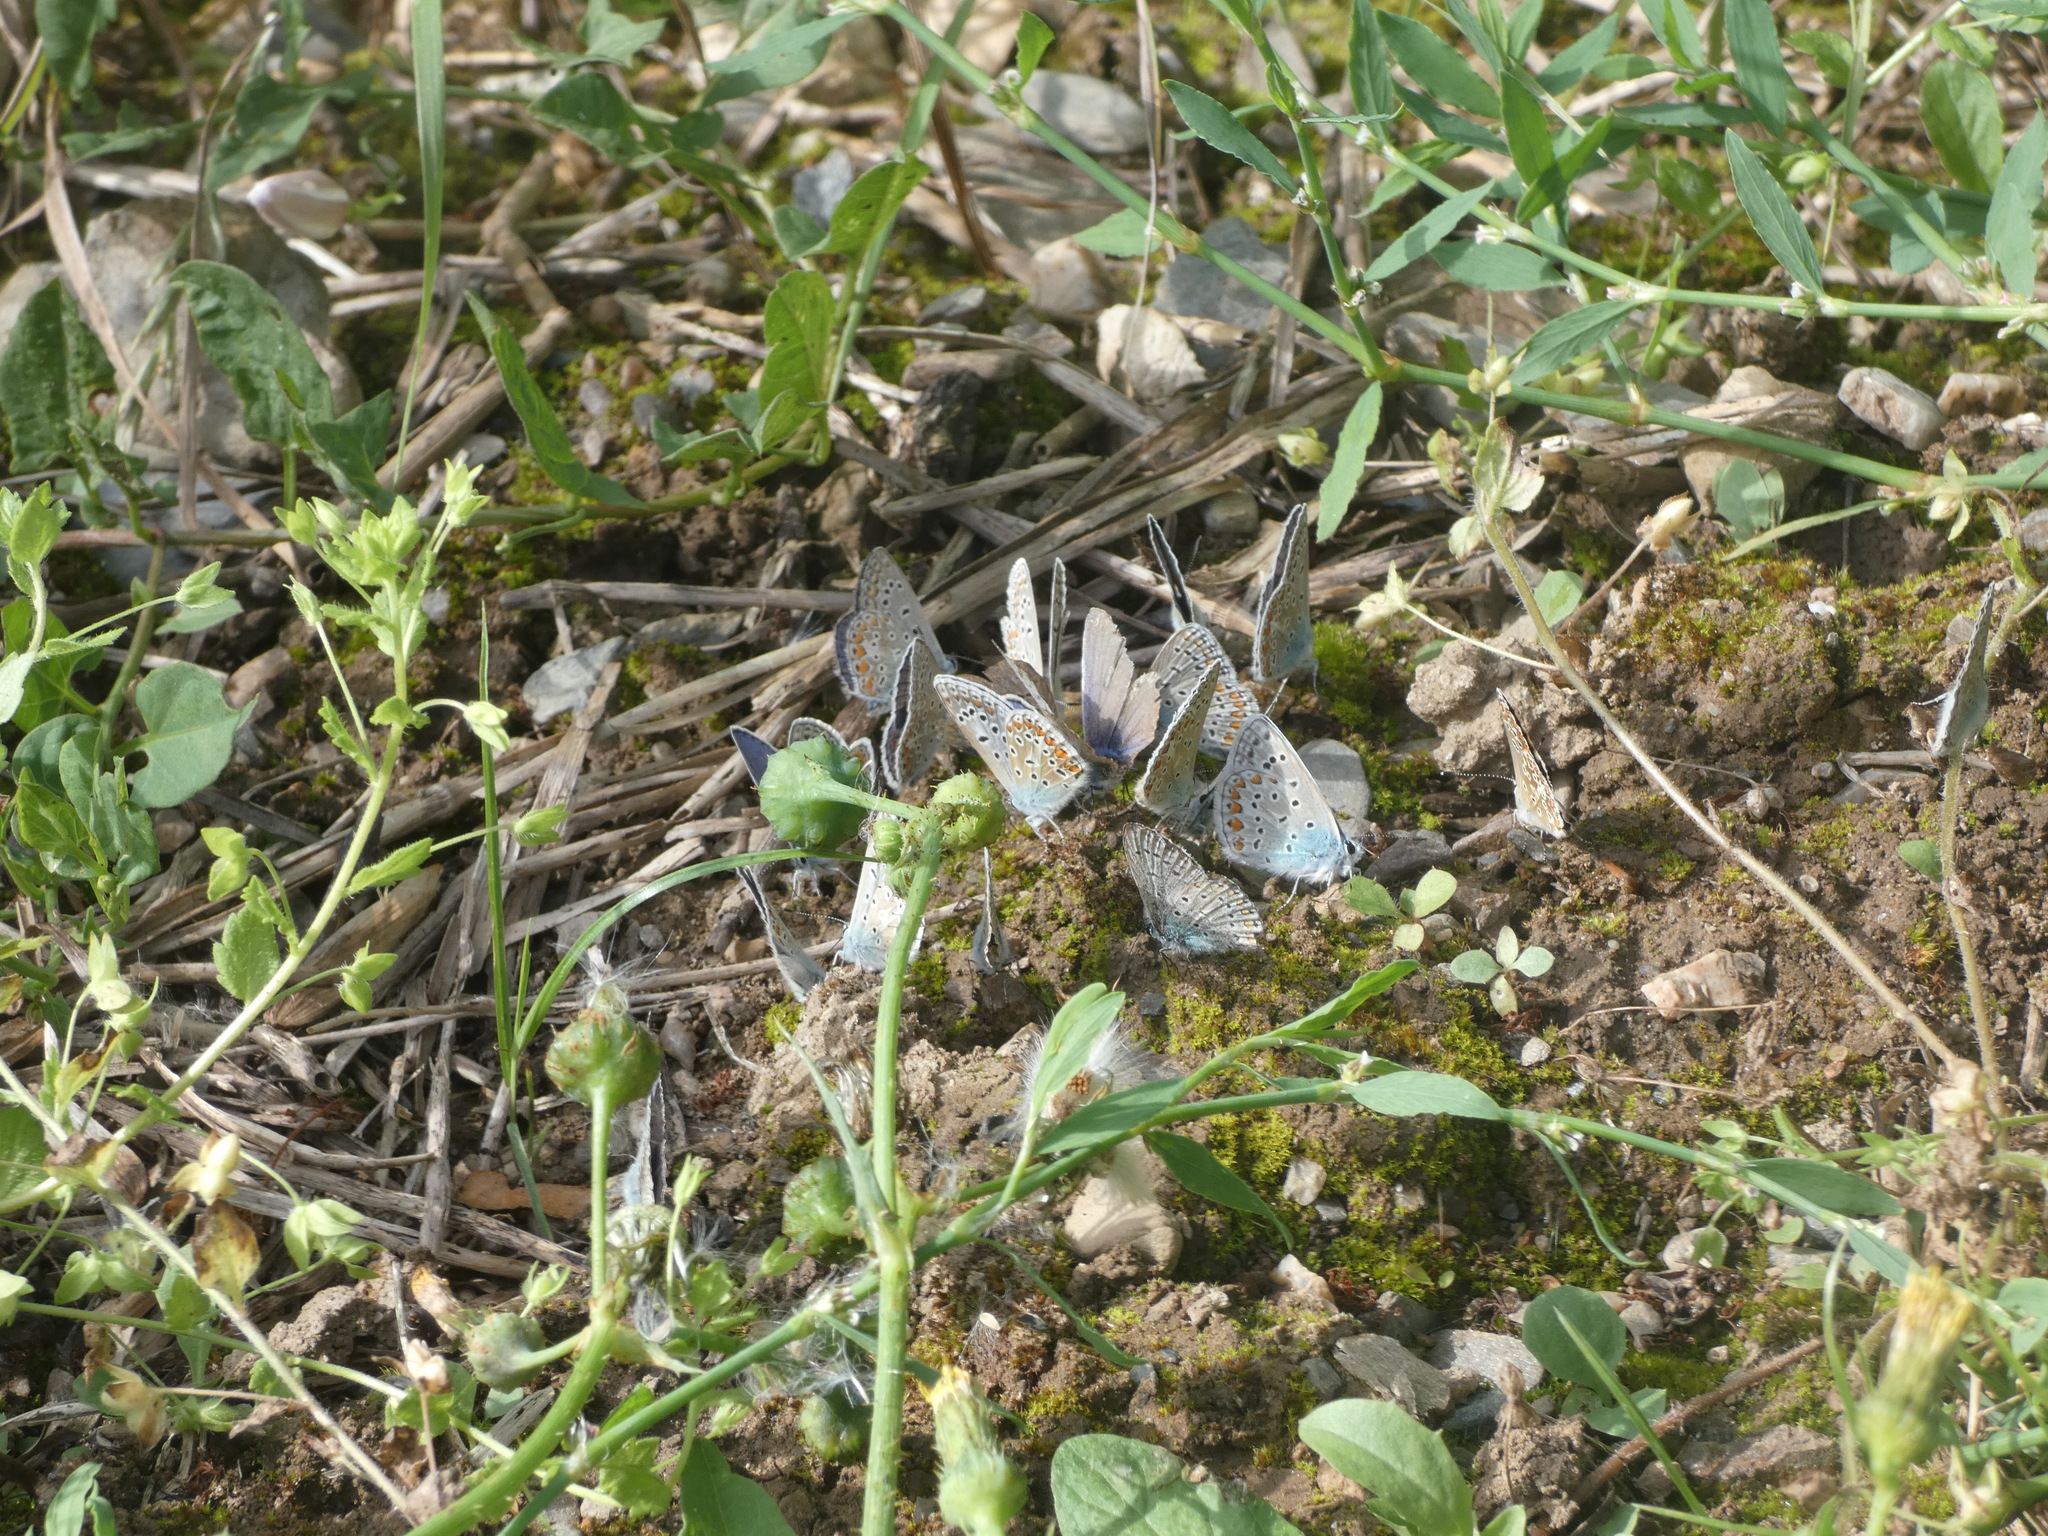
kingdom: Animalia
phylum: Arthropoda
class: Insecta
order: Lepidoptera
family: Lycaenidae
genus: Polyommatus
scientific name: Polyommatus icarus
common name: Common blue
